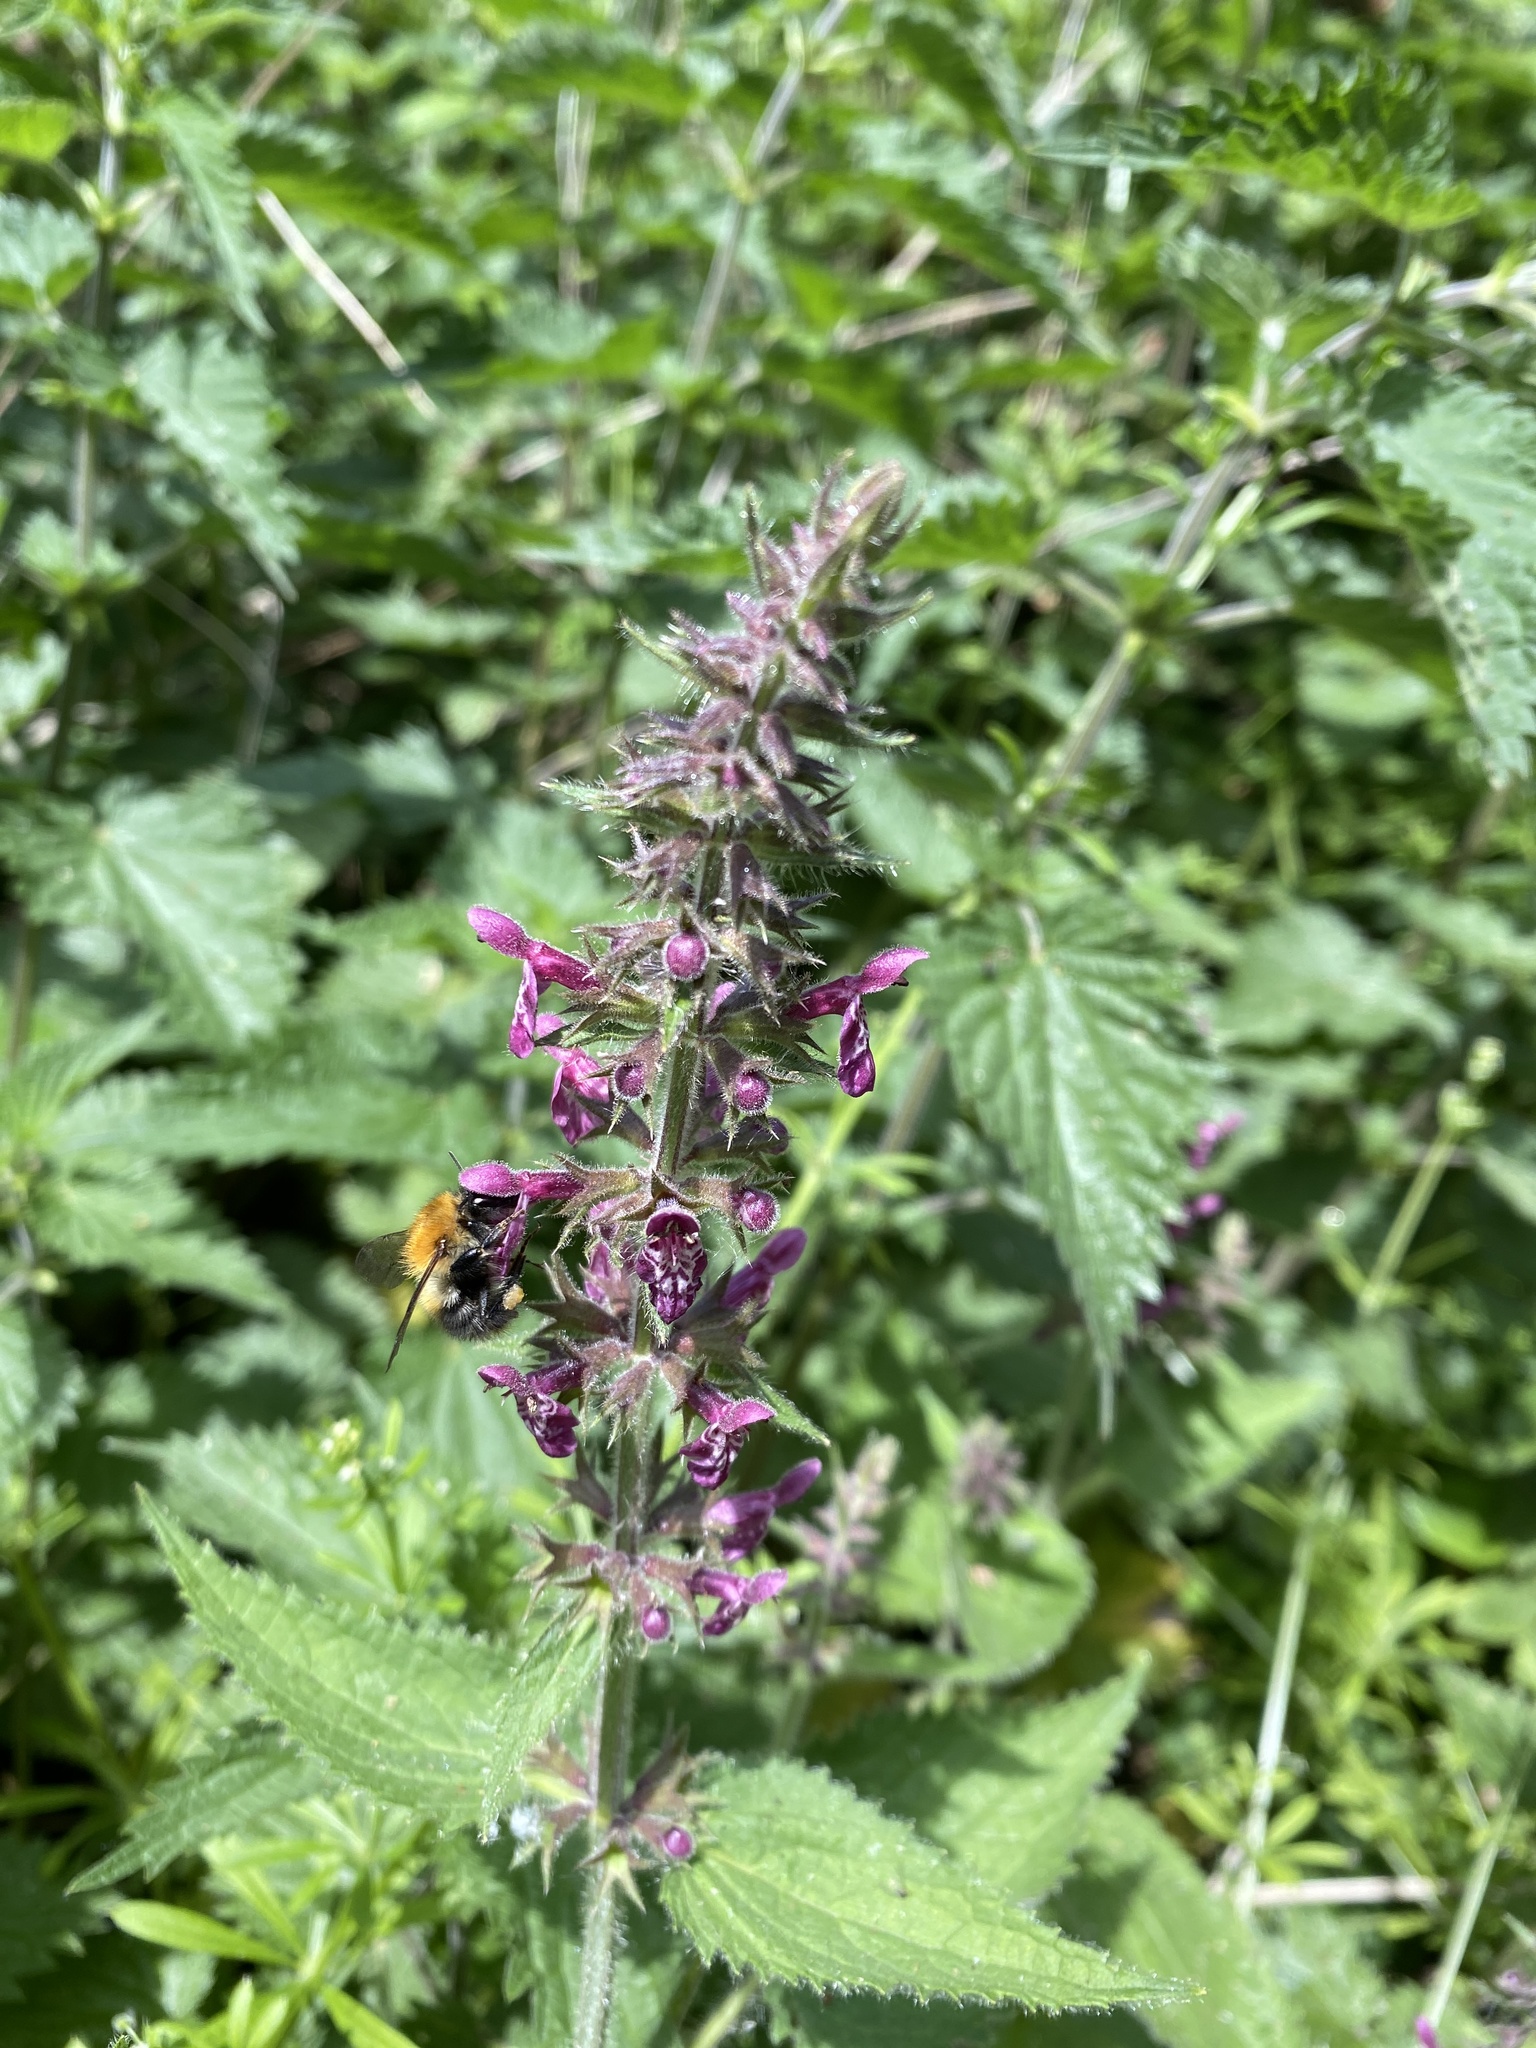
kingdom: Plantae
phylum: Tracheophyta
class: Magnoliopsida
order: Lamiales
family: Lamiaceae
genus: Stachys
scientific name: Stachys sylvatica
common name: Hedge woundwort
